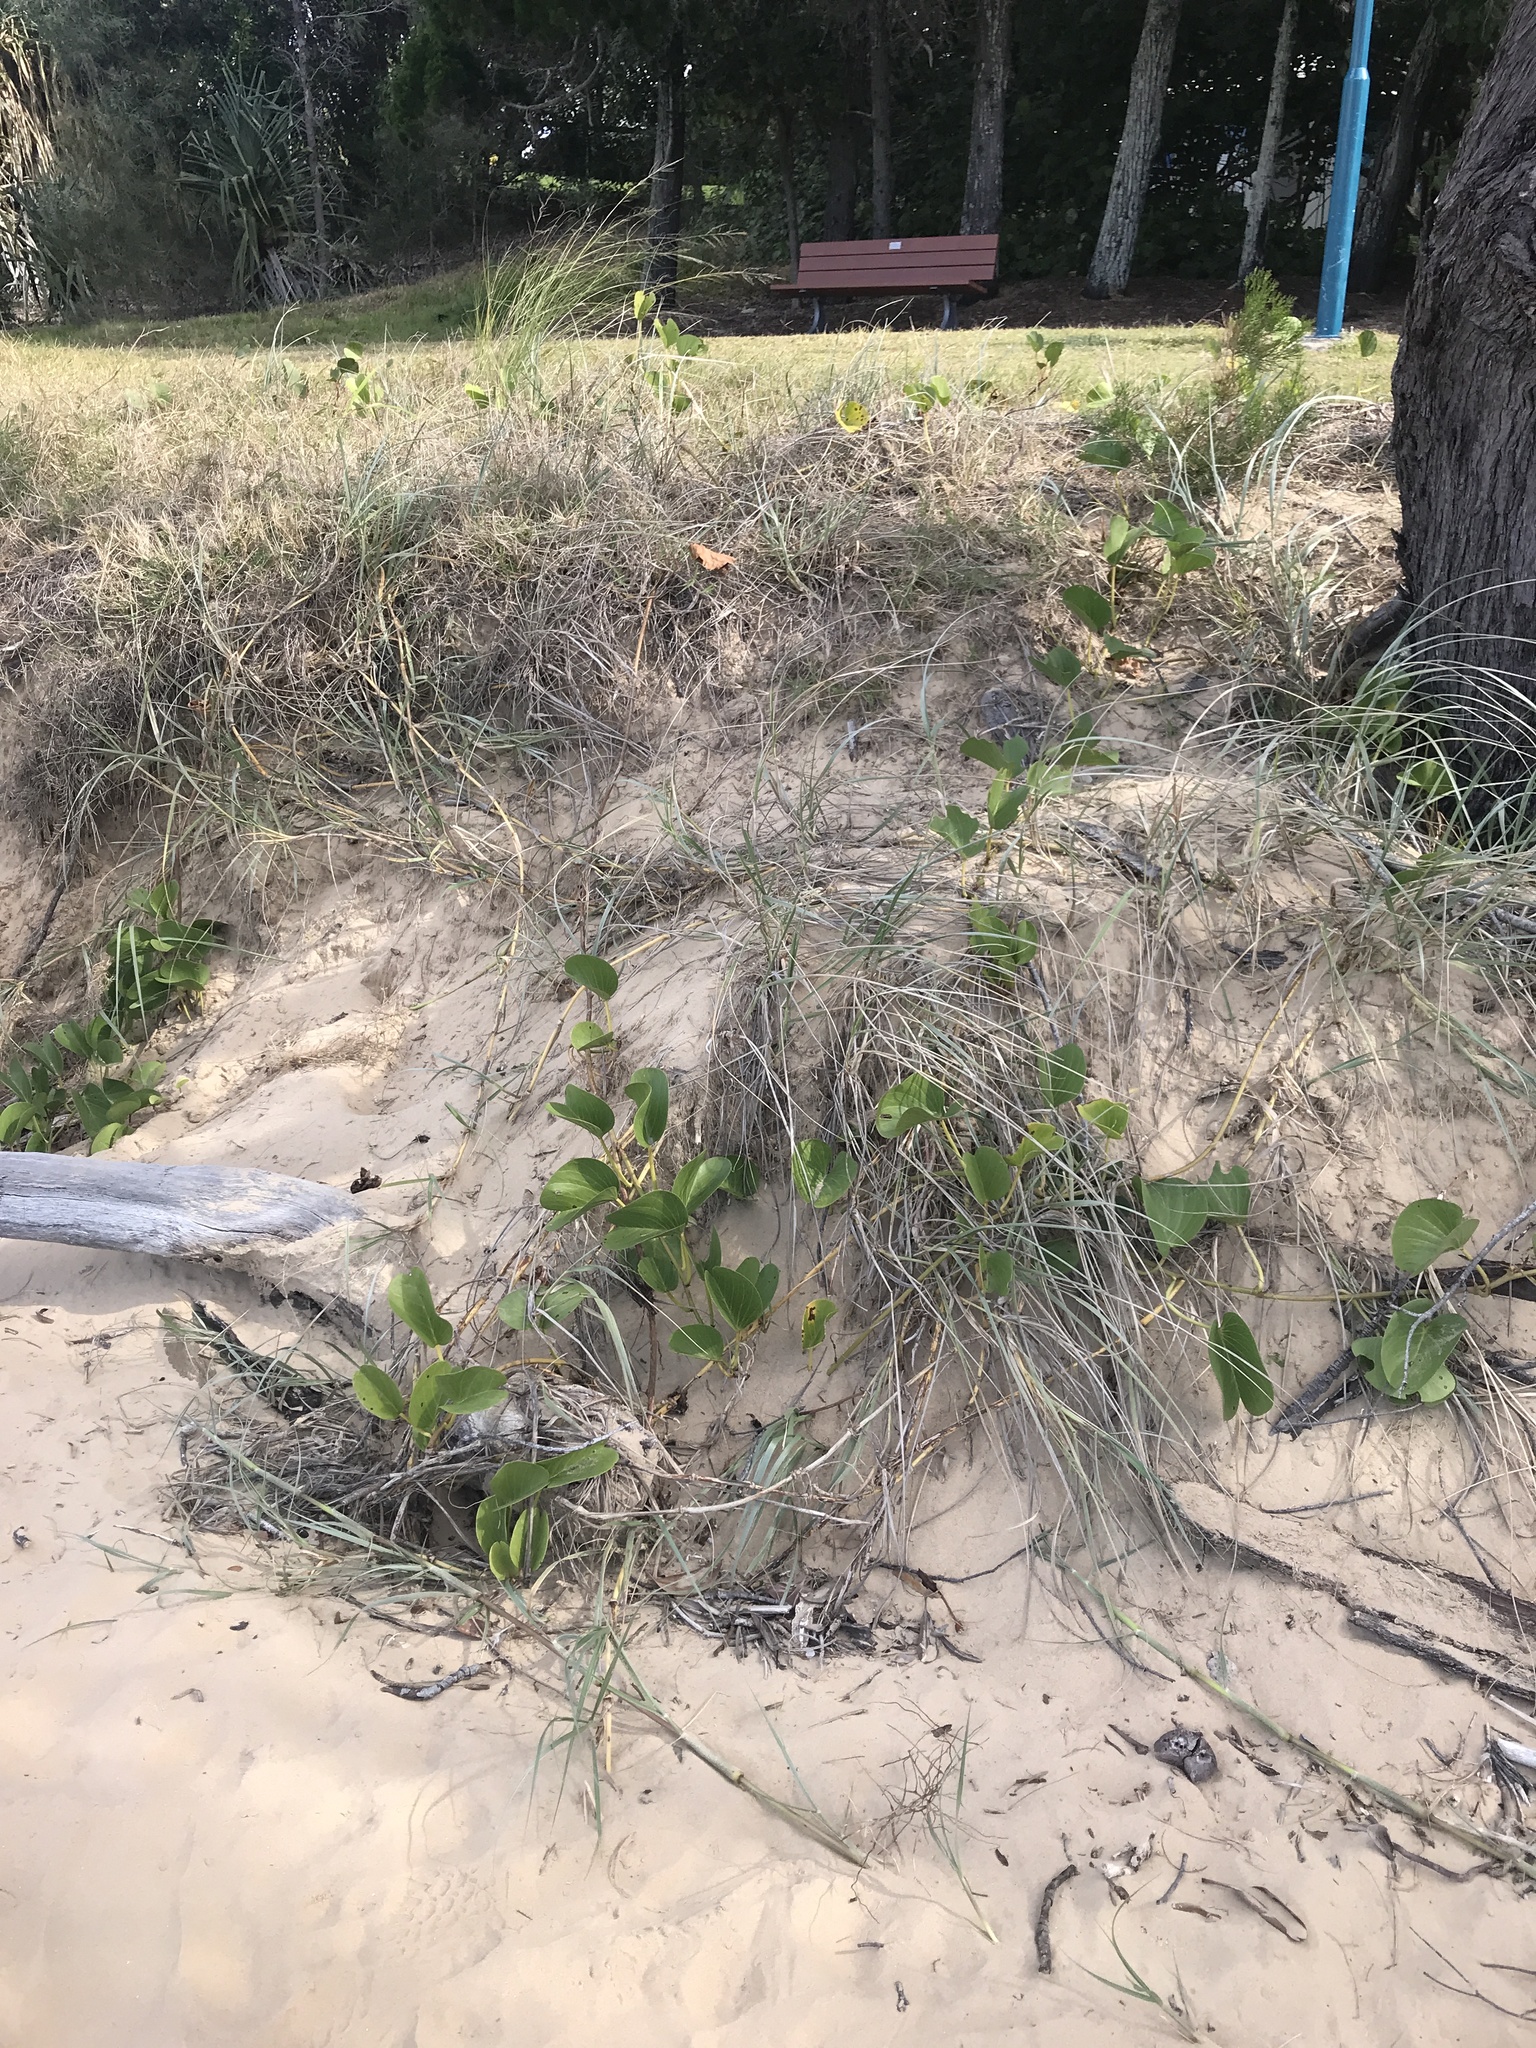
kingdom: Plantae
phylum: Tracheophyta
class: Magnoliopsida
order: Solanales
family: Convolvulaceae
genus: Ipomoea
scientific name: Ipomoea pes-caprae
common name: Beach morning glory
